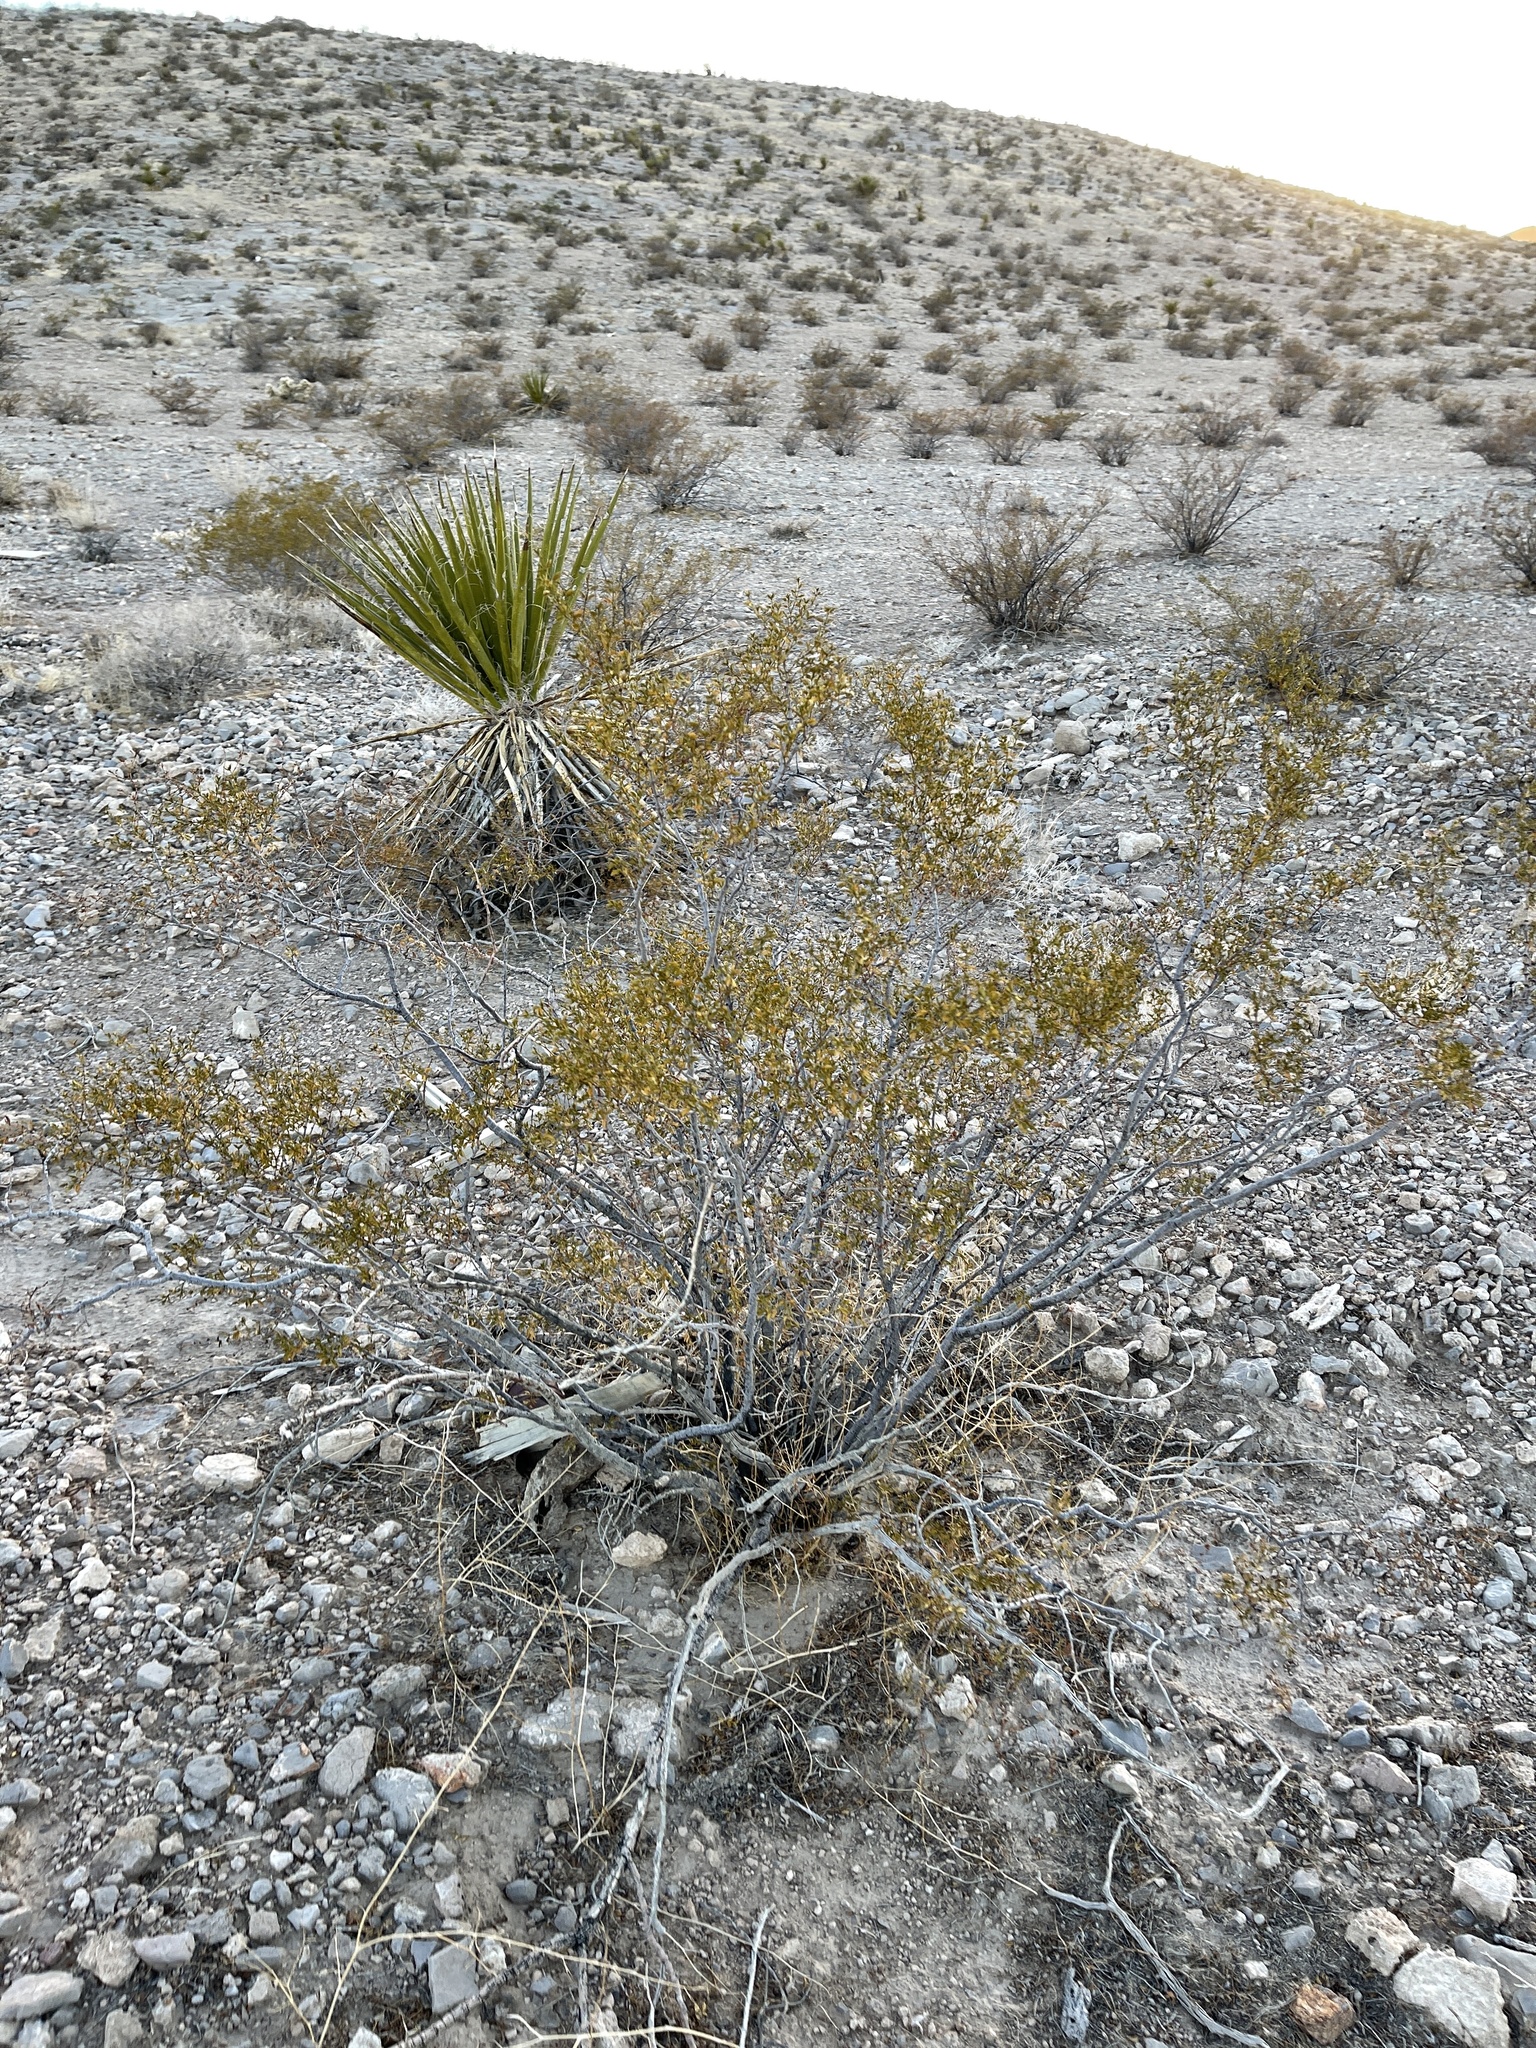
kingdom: Plantae
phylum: Tracheophyta
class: Magnoliopsida
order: Zygophyllales
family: Zygophyllaceae
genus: Larrea
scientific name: Larrea tridentata
